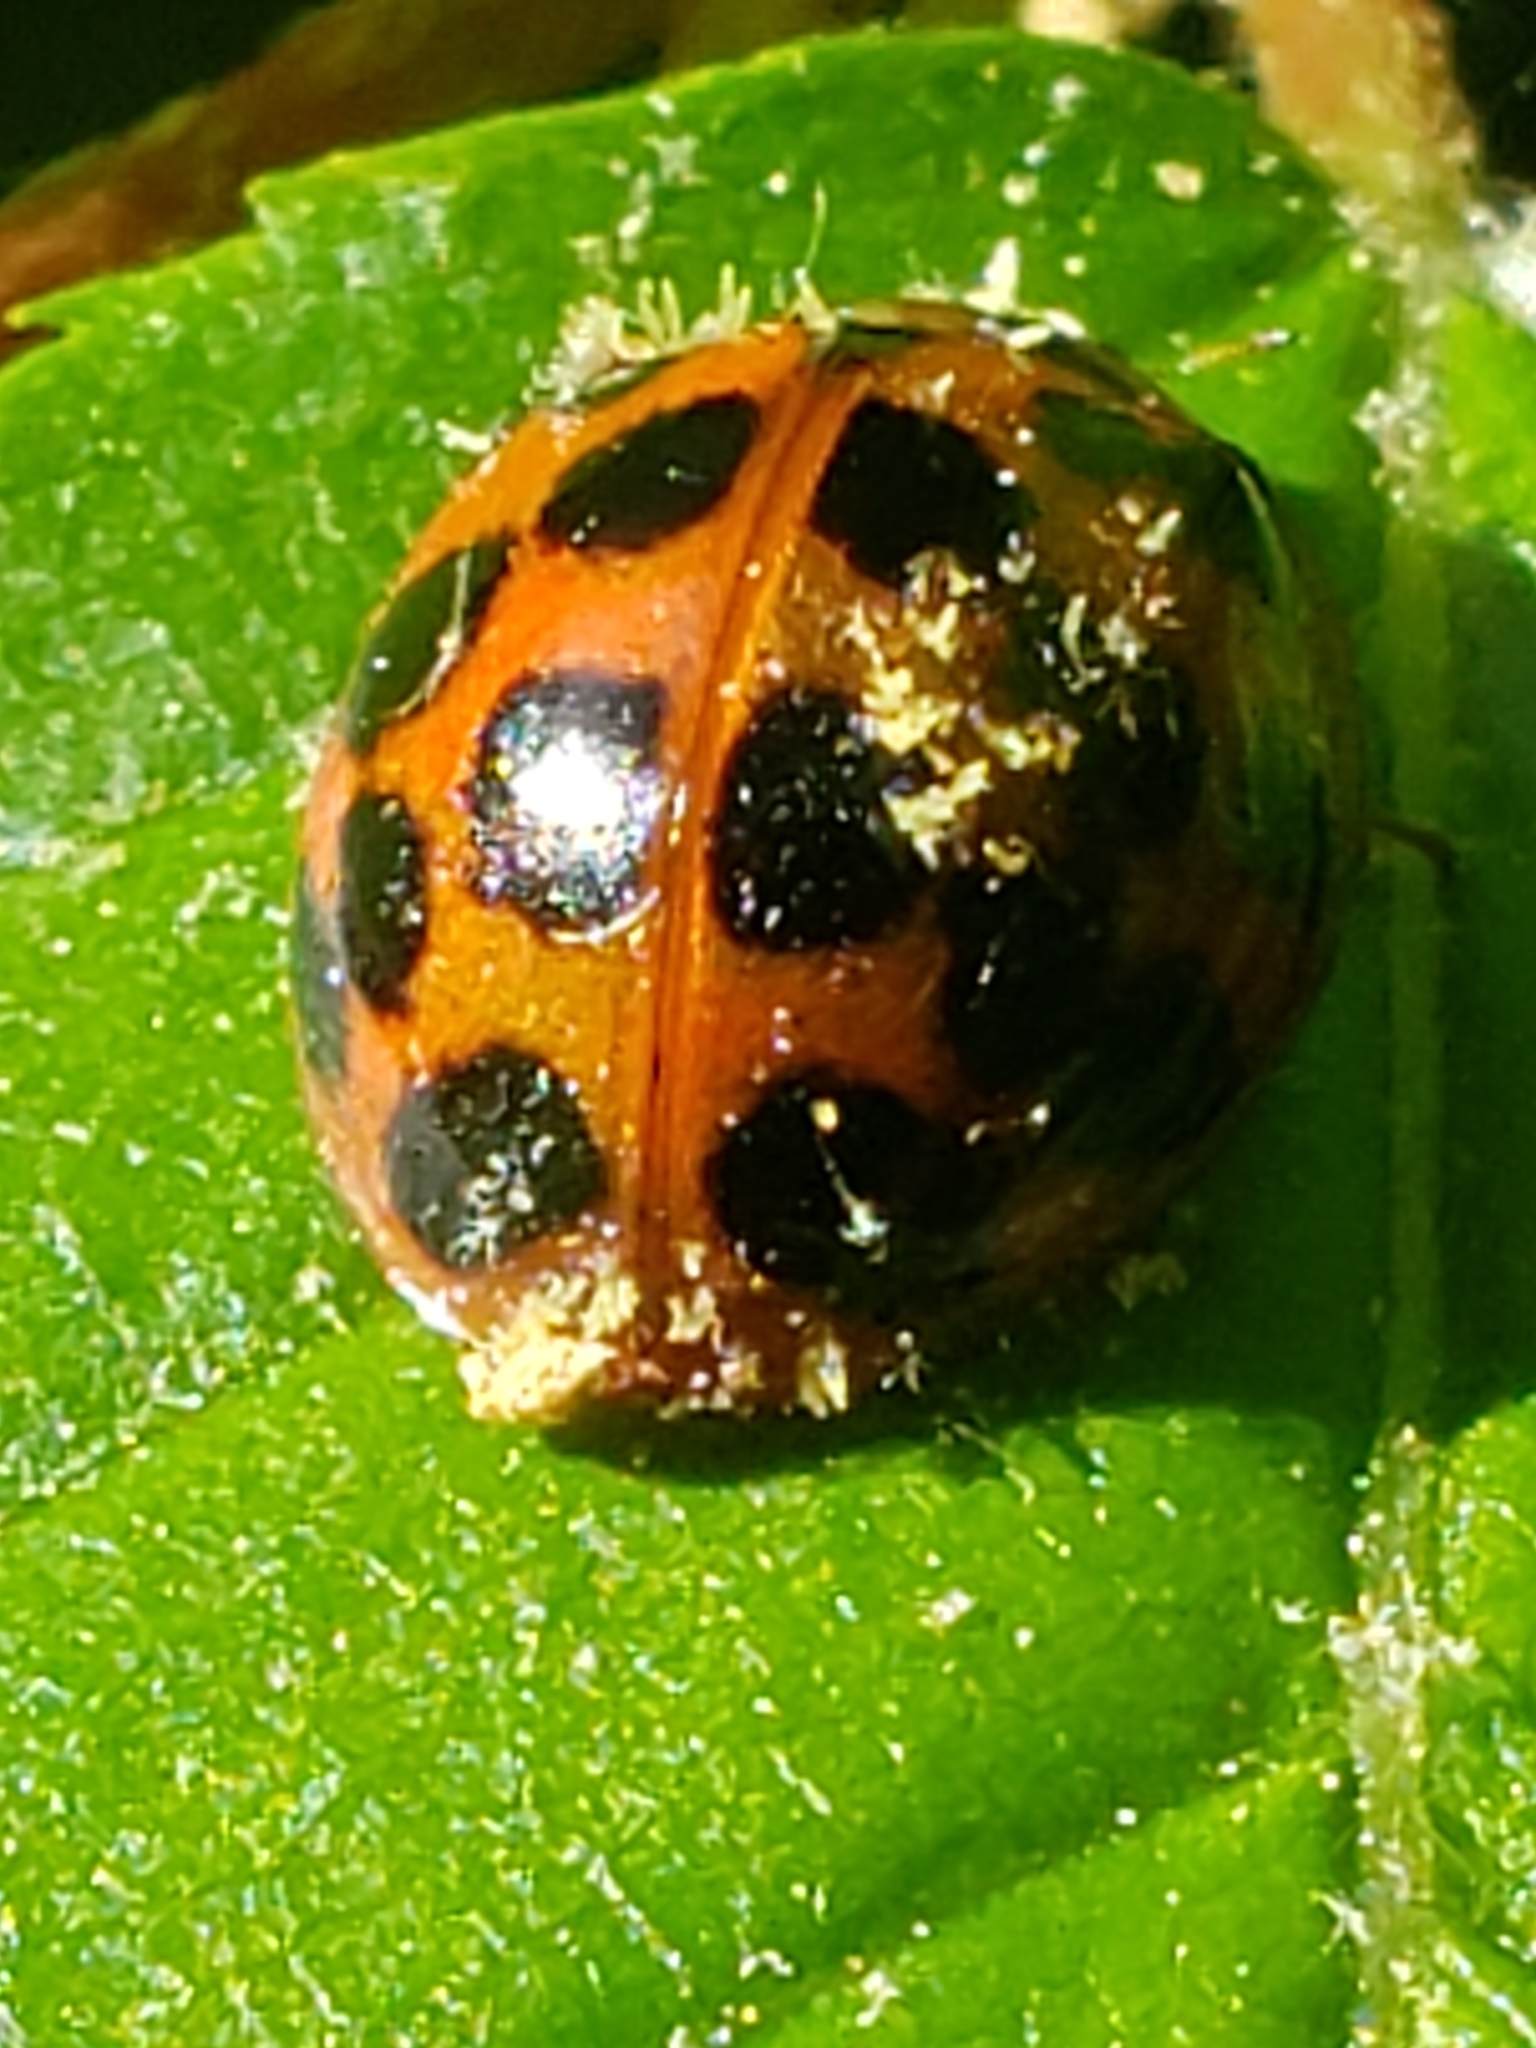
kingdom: Fungi
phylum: Ascomycota
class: Laboulbeniomycetes
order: Laboulbeniales
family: Laboulbeniaceae
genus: Hesperomyces
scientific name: Hesperomyces harmoniae
